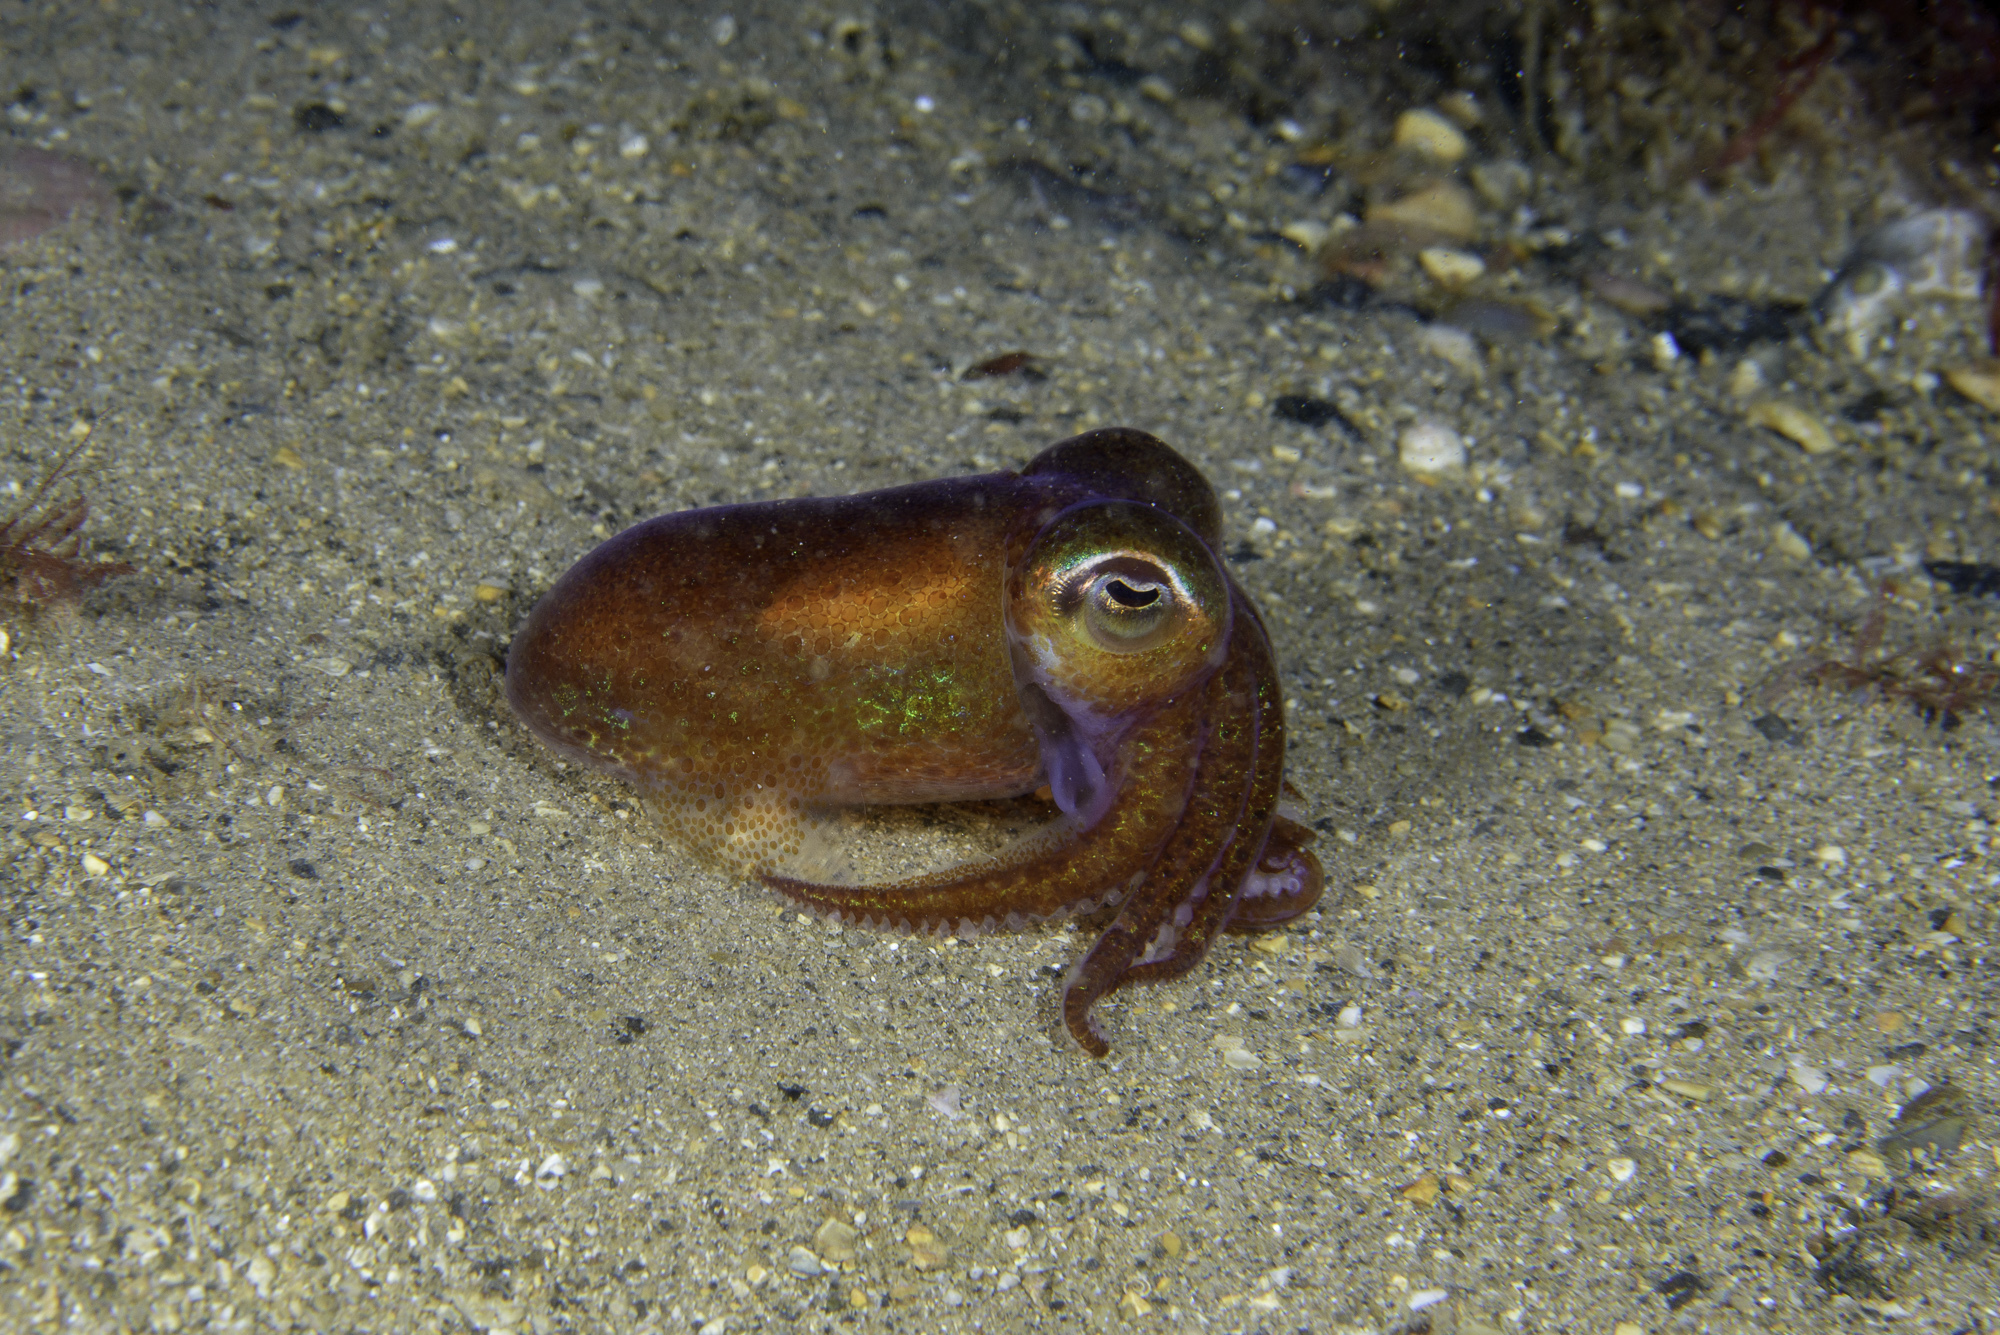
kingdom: Animalia
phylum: Mollusca
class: Cephalopoda
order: Sepiida
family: Sepiolidae
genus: Rossia
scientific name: Rossia macrosoma
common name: Stout bobtail
